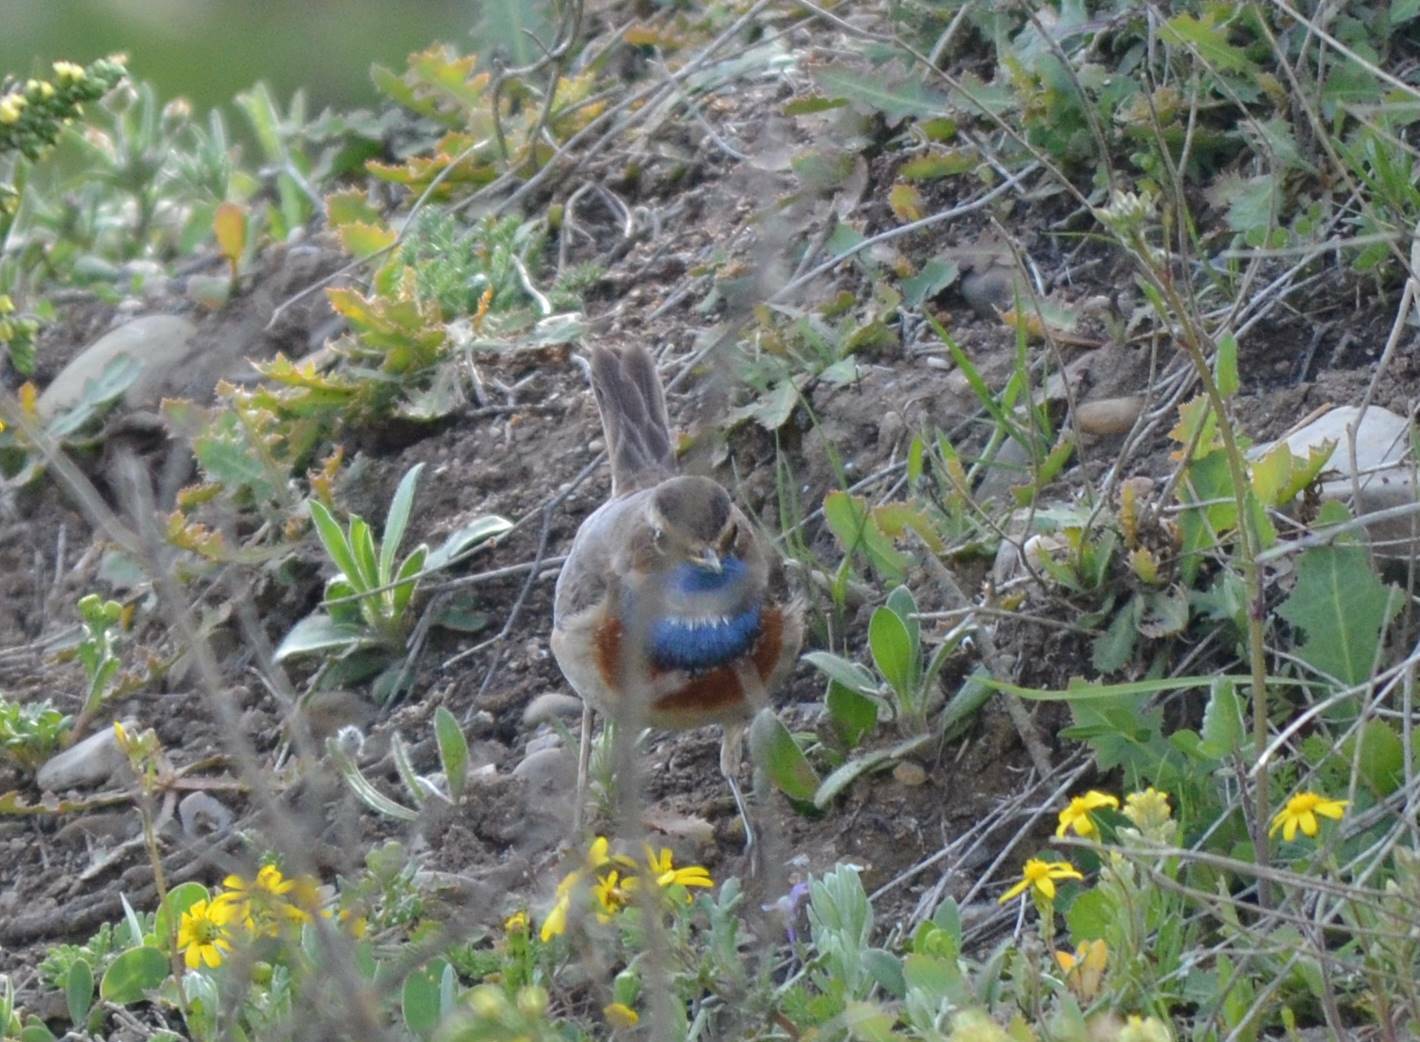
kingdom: Animalia
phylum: Chordata
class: Aves
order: Passeriformes
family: Muscicapidae
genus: Luscinia
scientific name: Luscinia svecica
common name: Bluethroat
